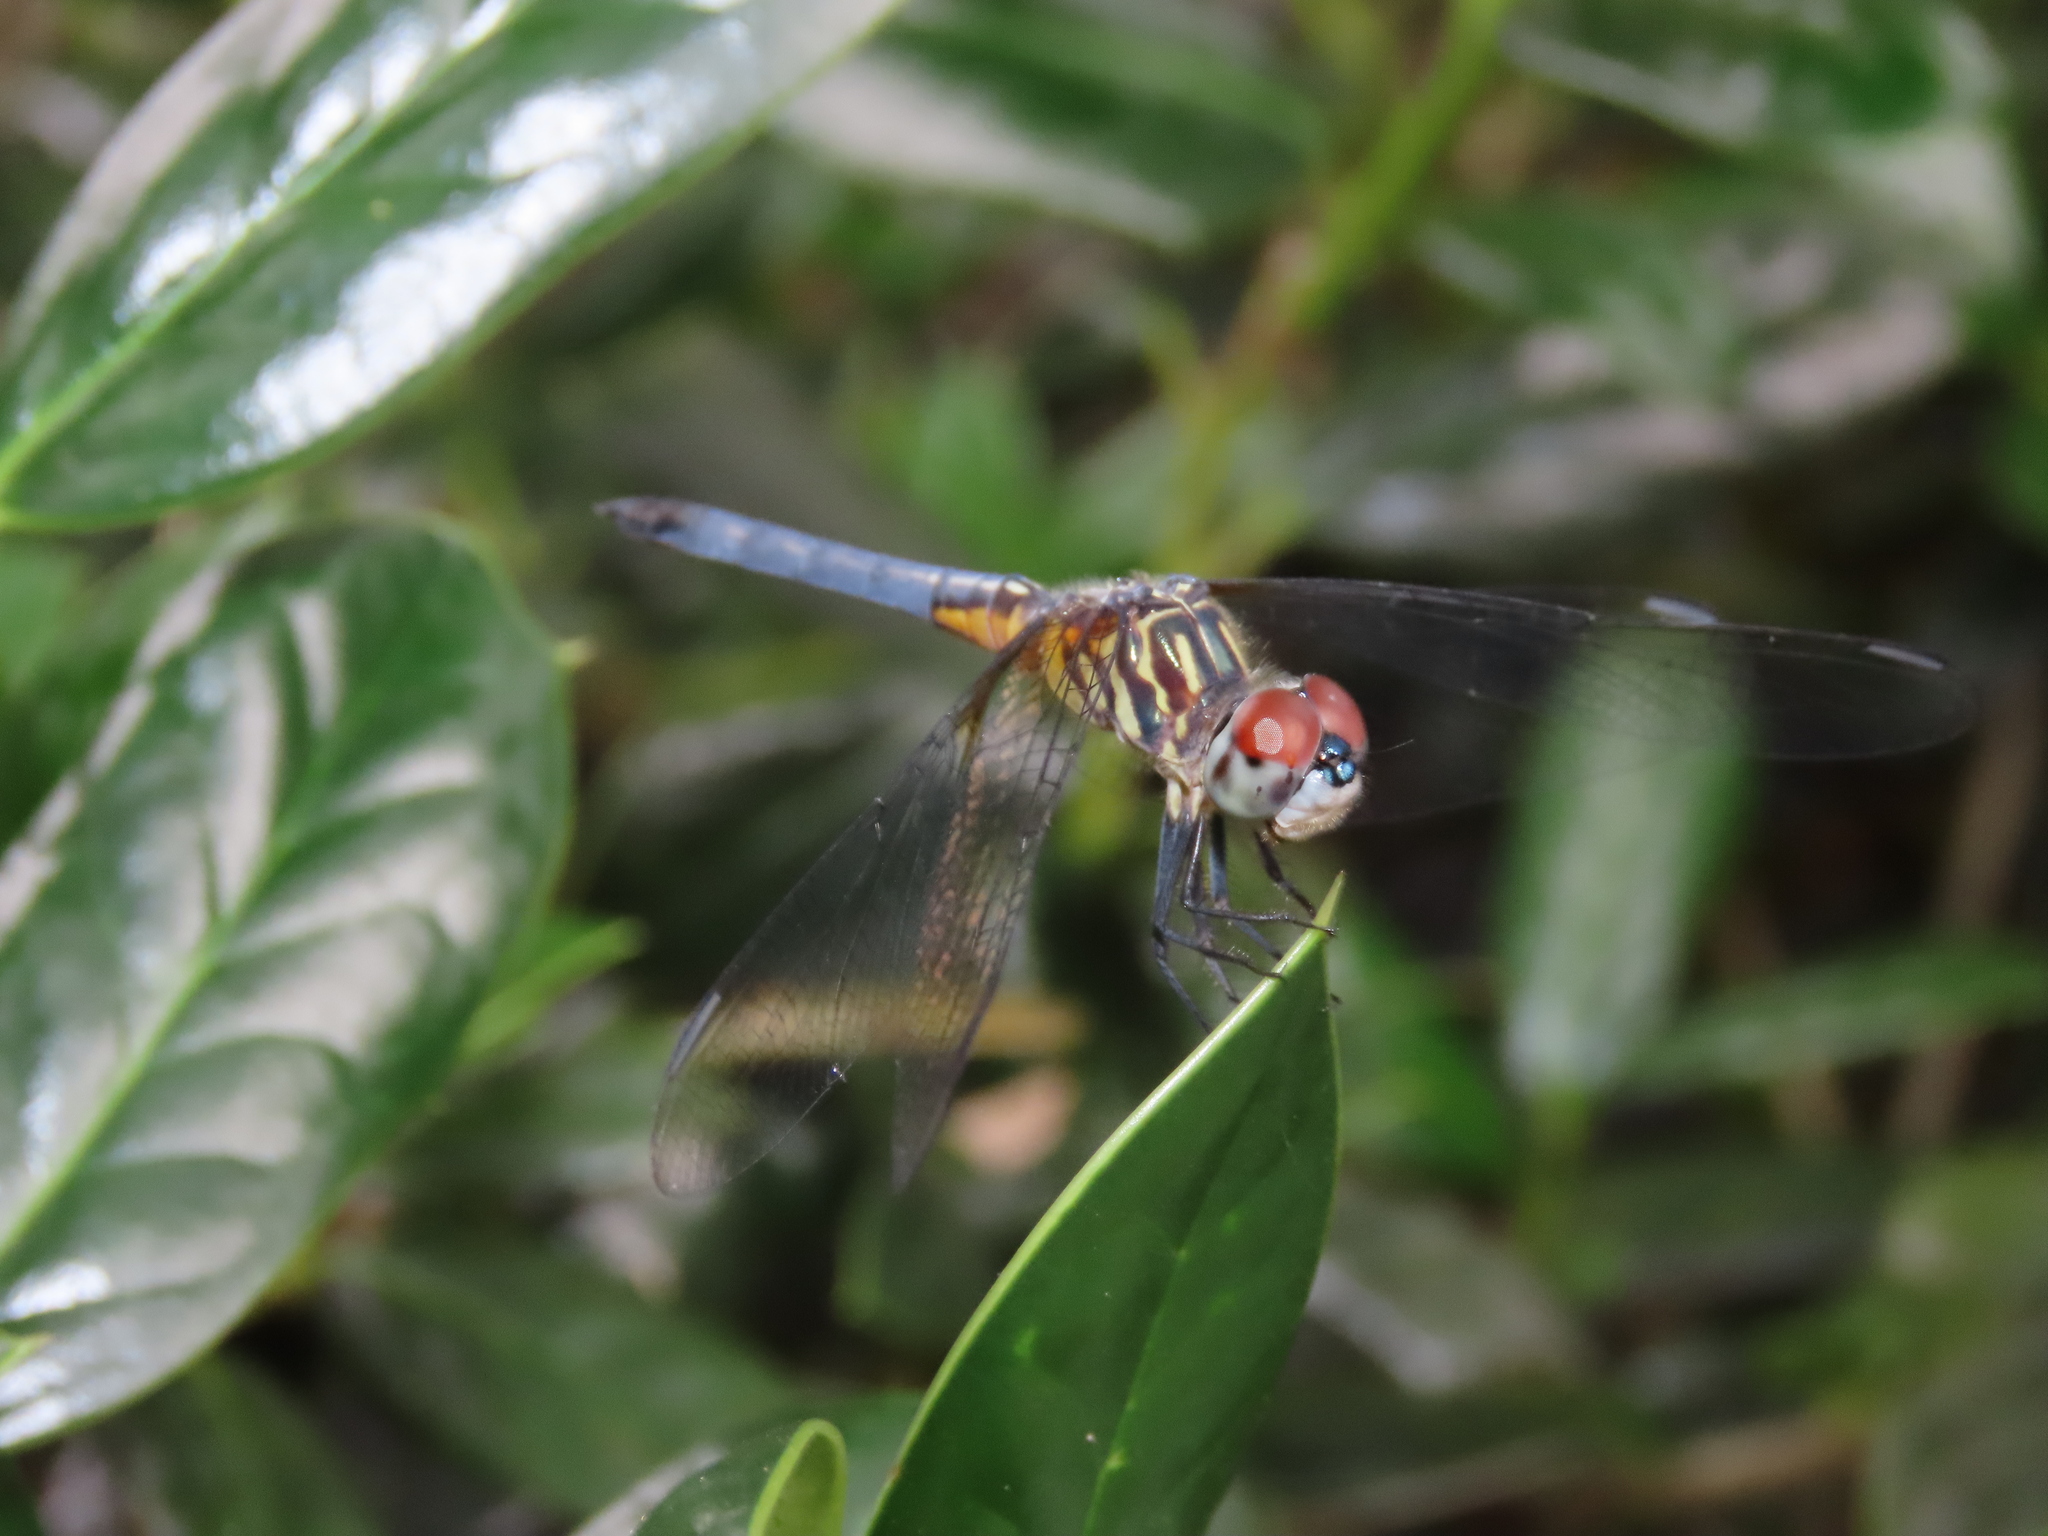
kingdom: Animalia
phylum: Arthropoda
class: Insecta
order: Odonata
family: Libellulidae
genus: Pachydiplax
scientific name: Pachydiplax longipennis
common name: Blue dasher
